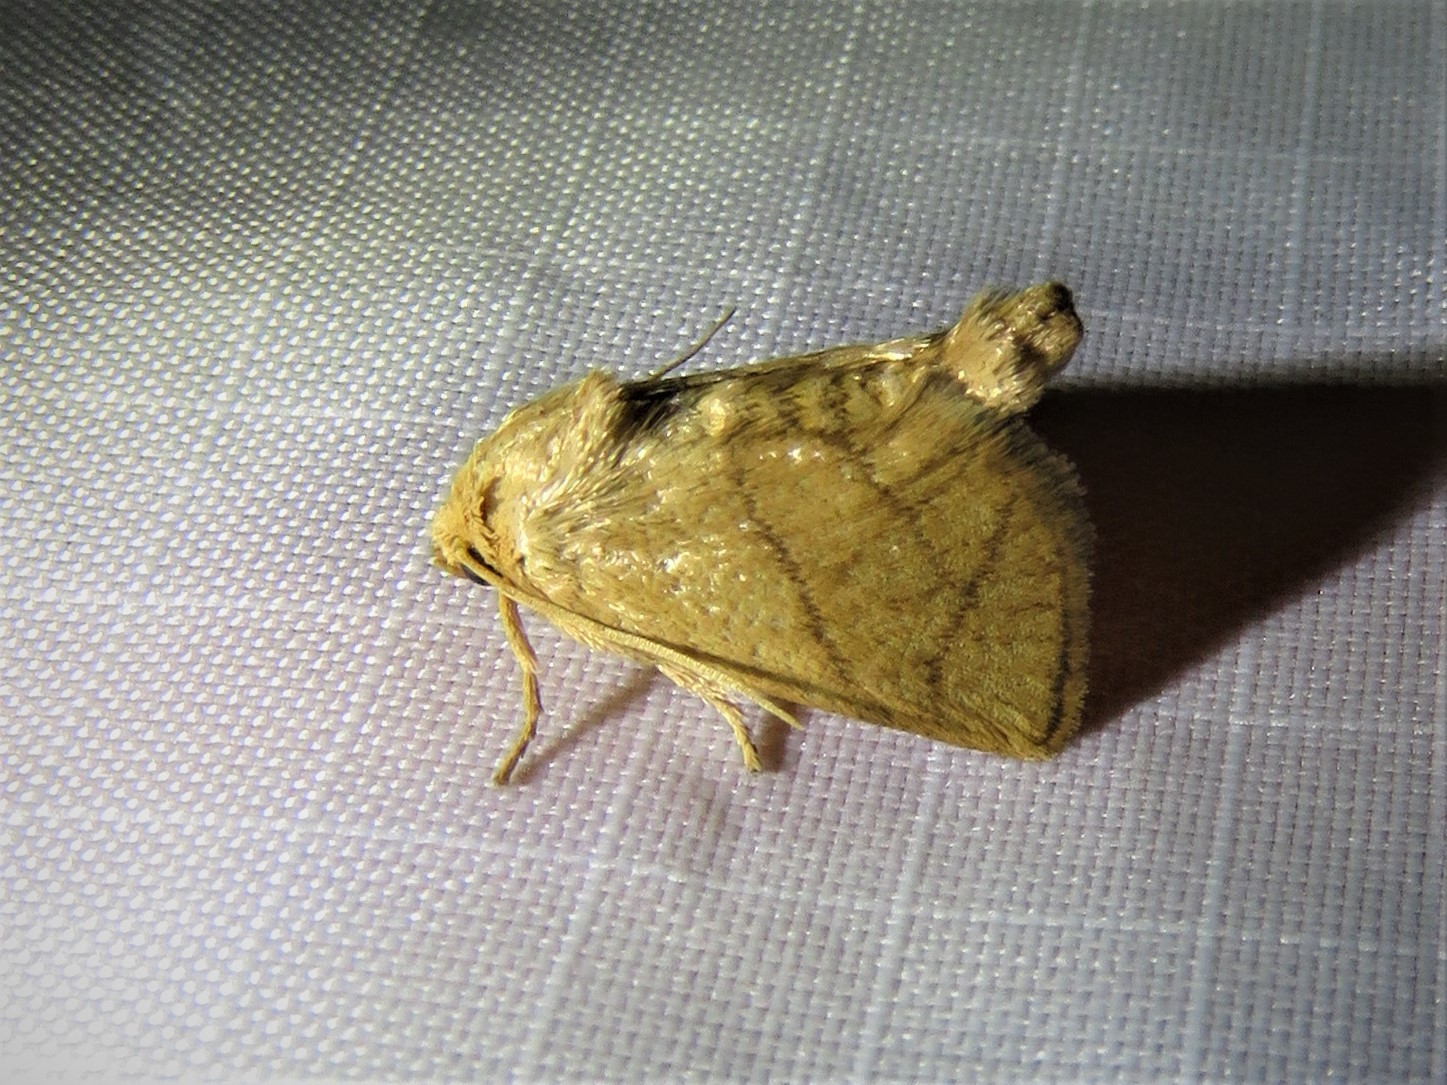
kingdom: Animalia
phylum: Arthropoda
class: Insecta
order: Lepidoptera
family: Limacodidae
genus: Apoda
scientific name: Apoda y-inversa
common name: Yellow-collared slug moth
